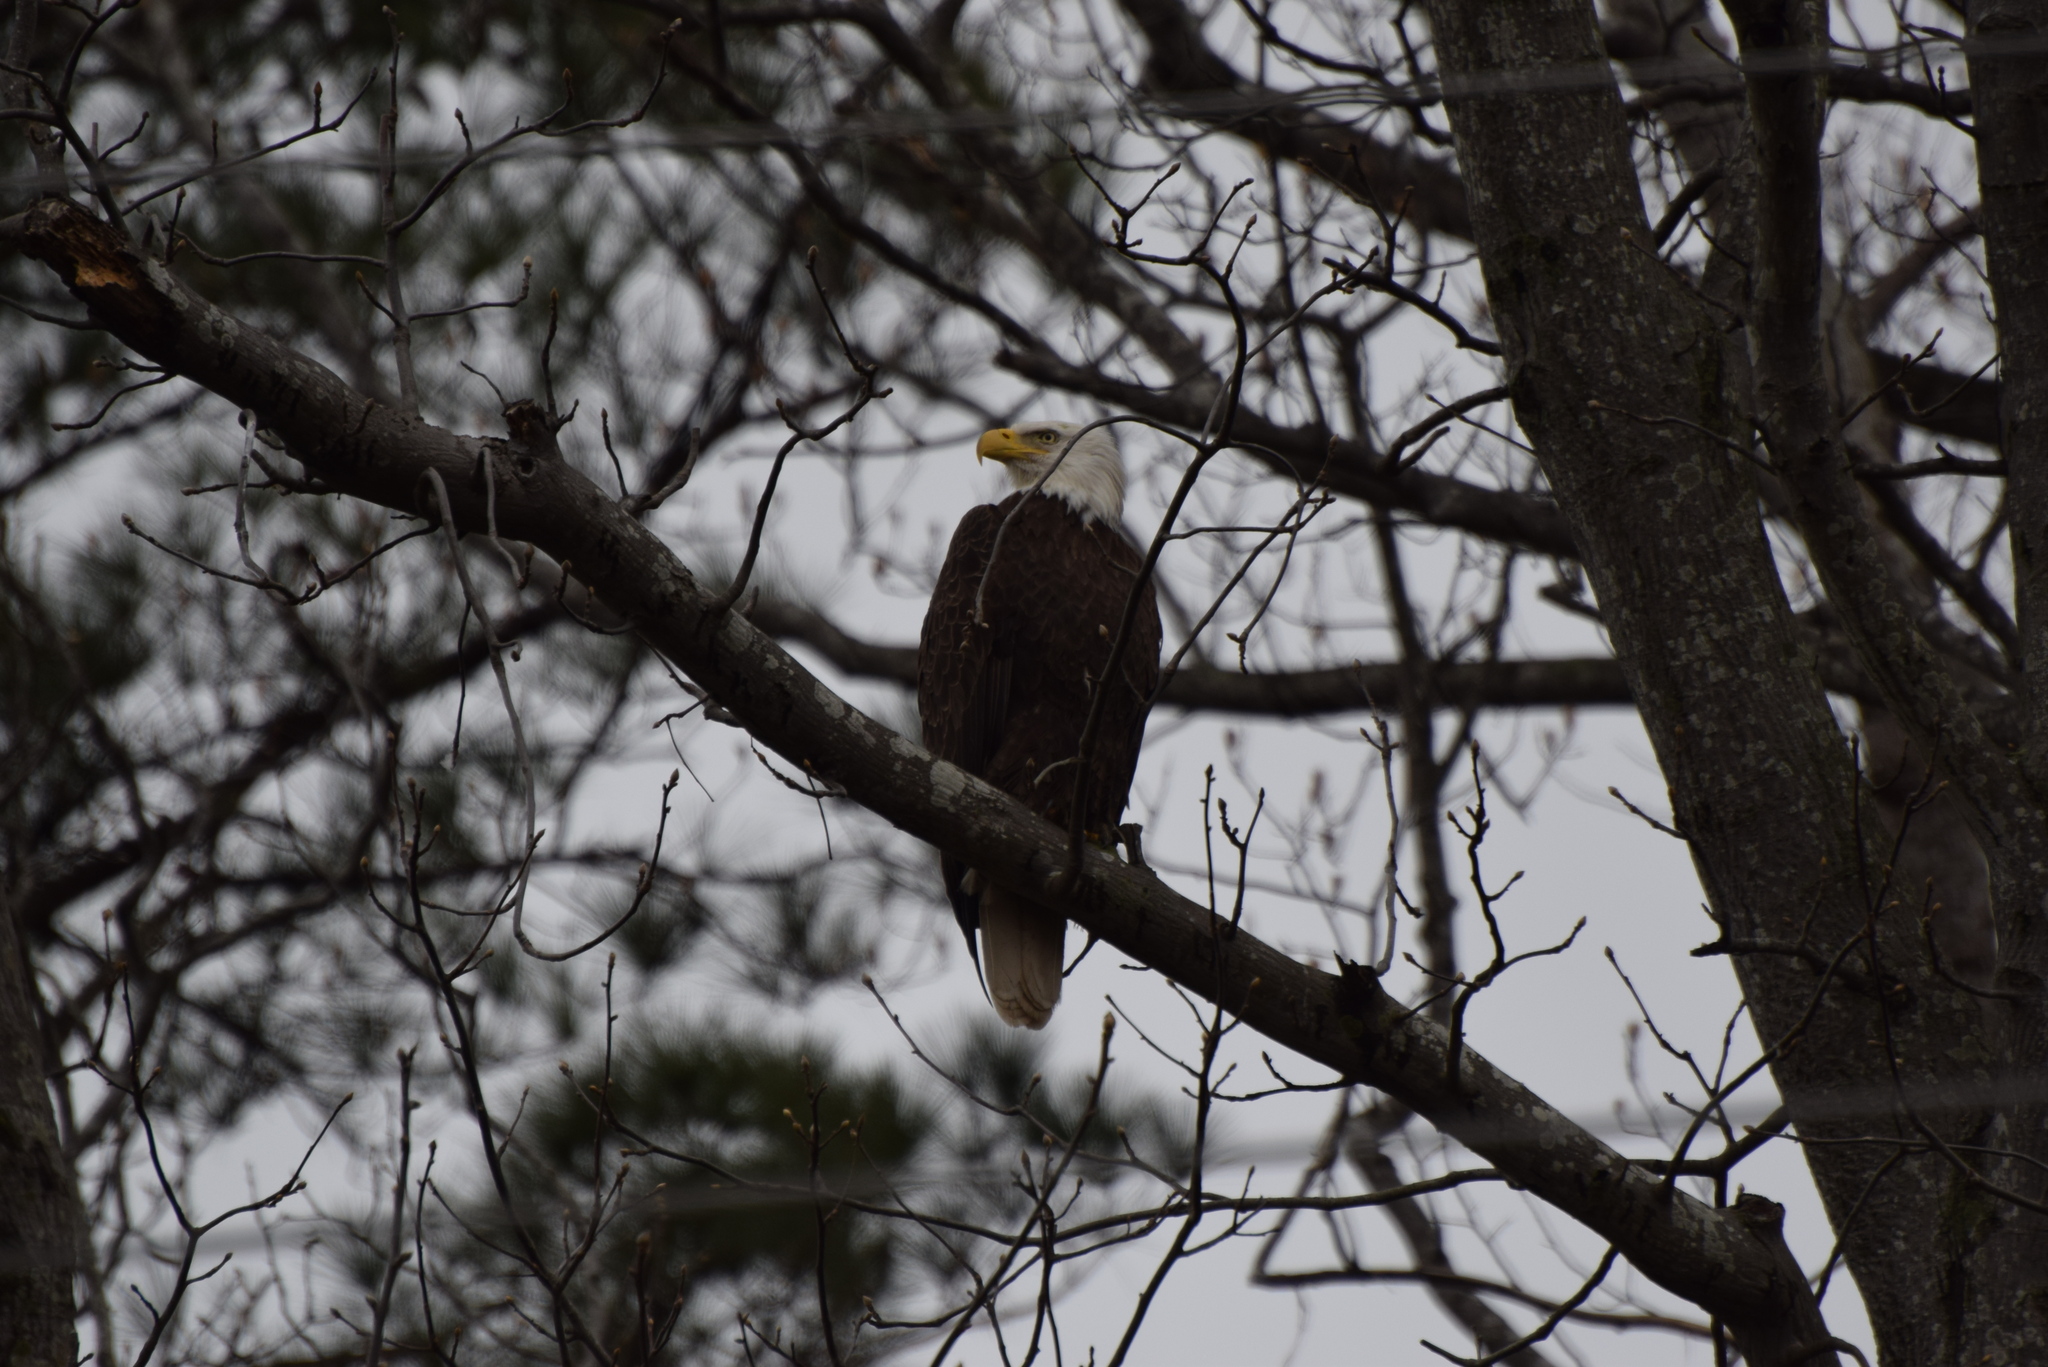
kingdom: Animalia
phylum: Chordata
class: Aves
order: Accipitriformes
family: Accipitridae
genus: Haliaeetus
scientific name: Haliaeetus leucocephalus
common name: Bald eagle
